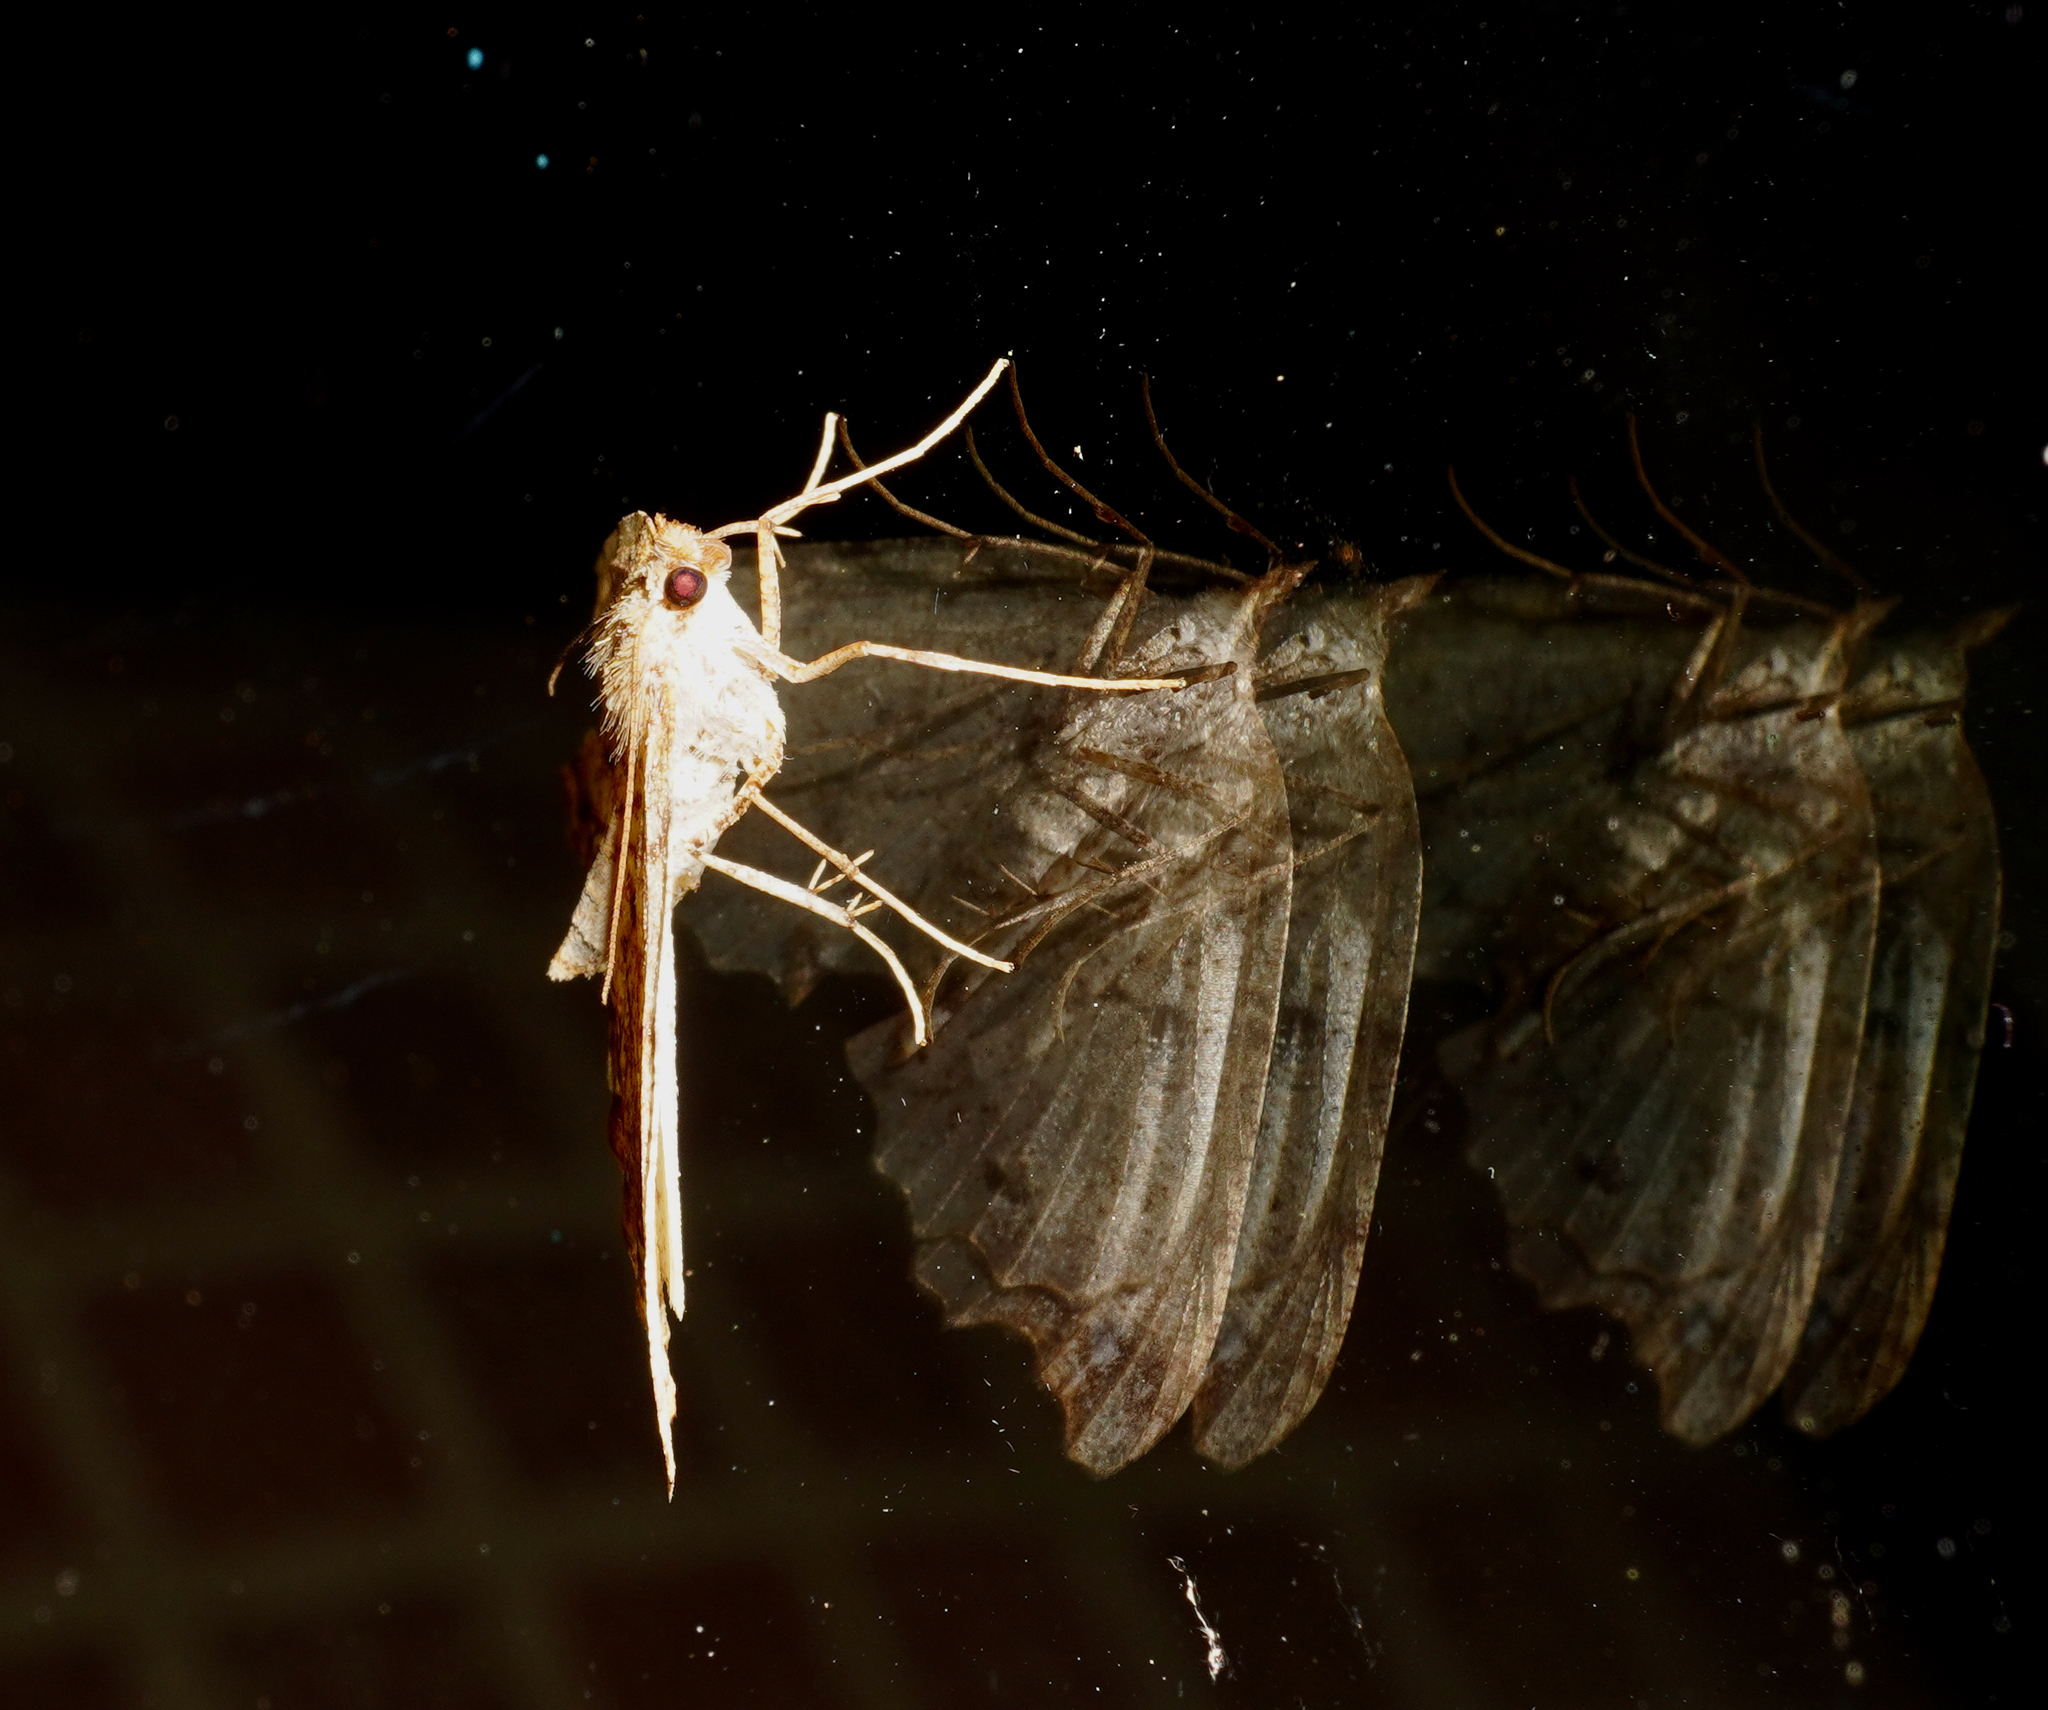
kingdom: Animalia
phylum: Arthropoda
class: Insecta
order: Lepidoptera
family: Geometridae
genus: Chalastra
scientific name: Chalastra pellurgata
